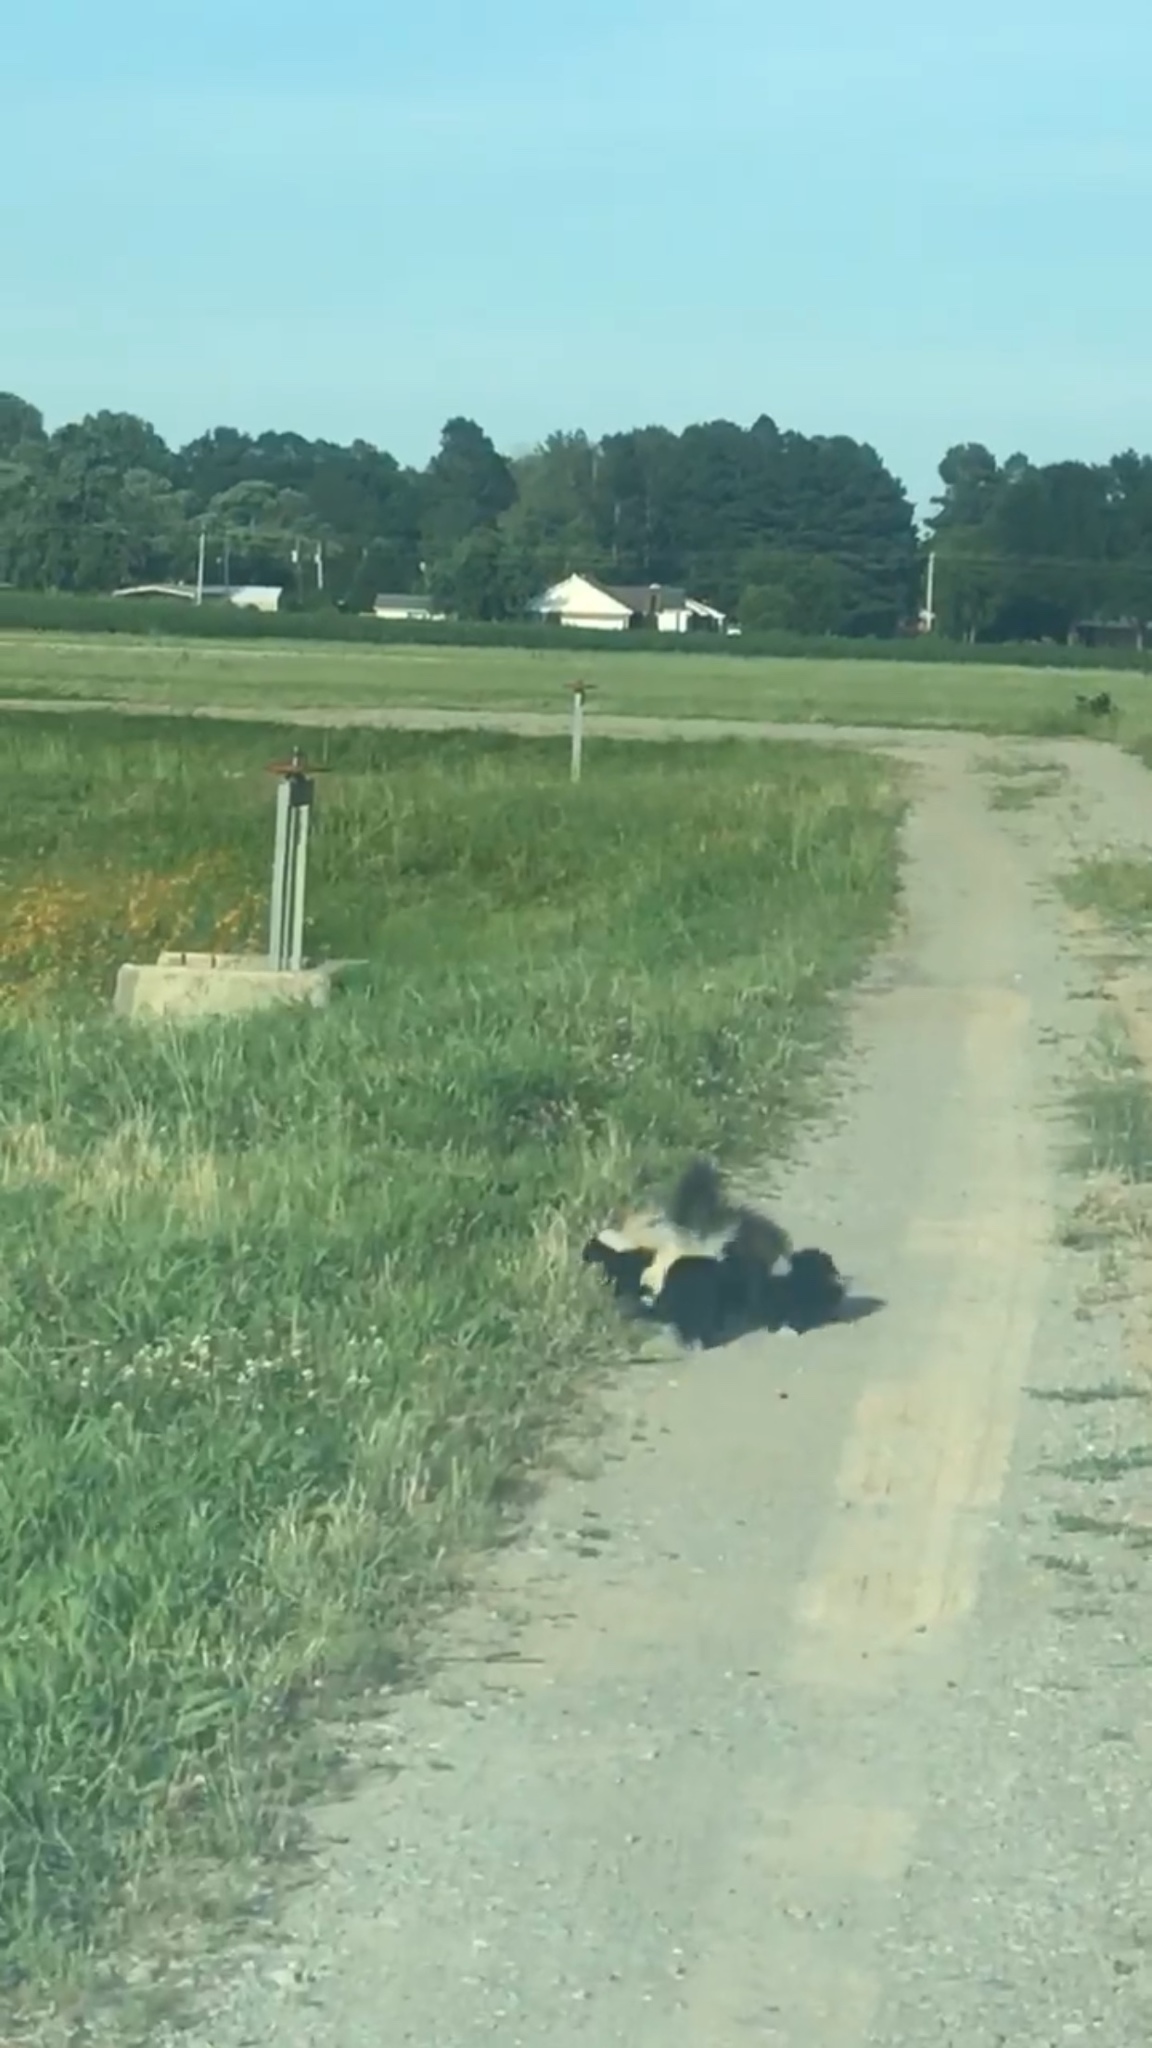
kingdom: Animalia
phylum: Chordata
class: Mammalia
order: Carnivora
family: Mephitidae
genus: Mephitis
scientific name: Mephitis mephitis
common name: Striped skunk
